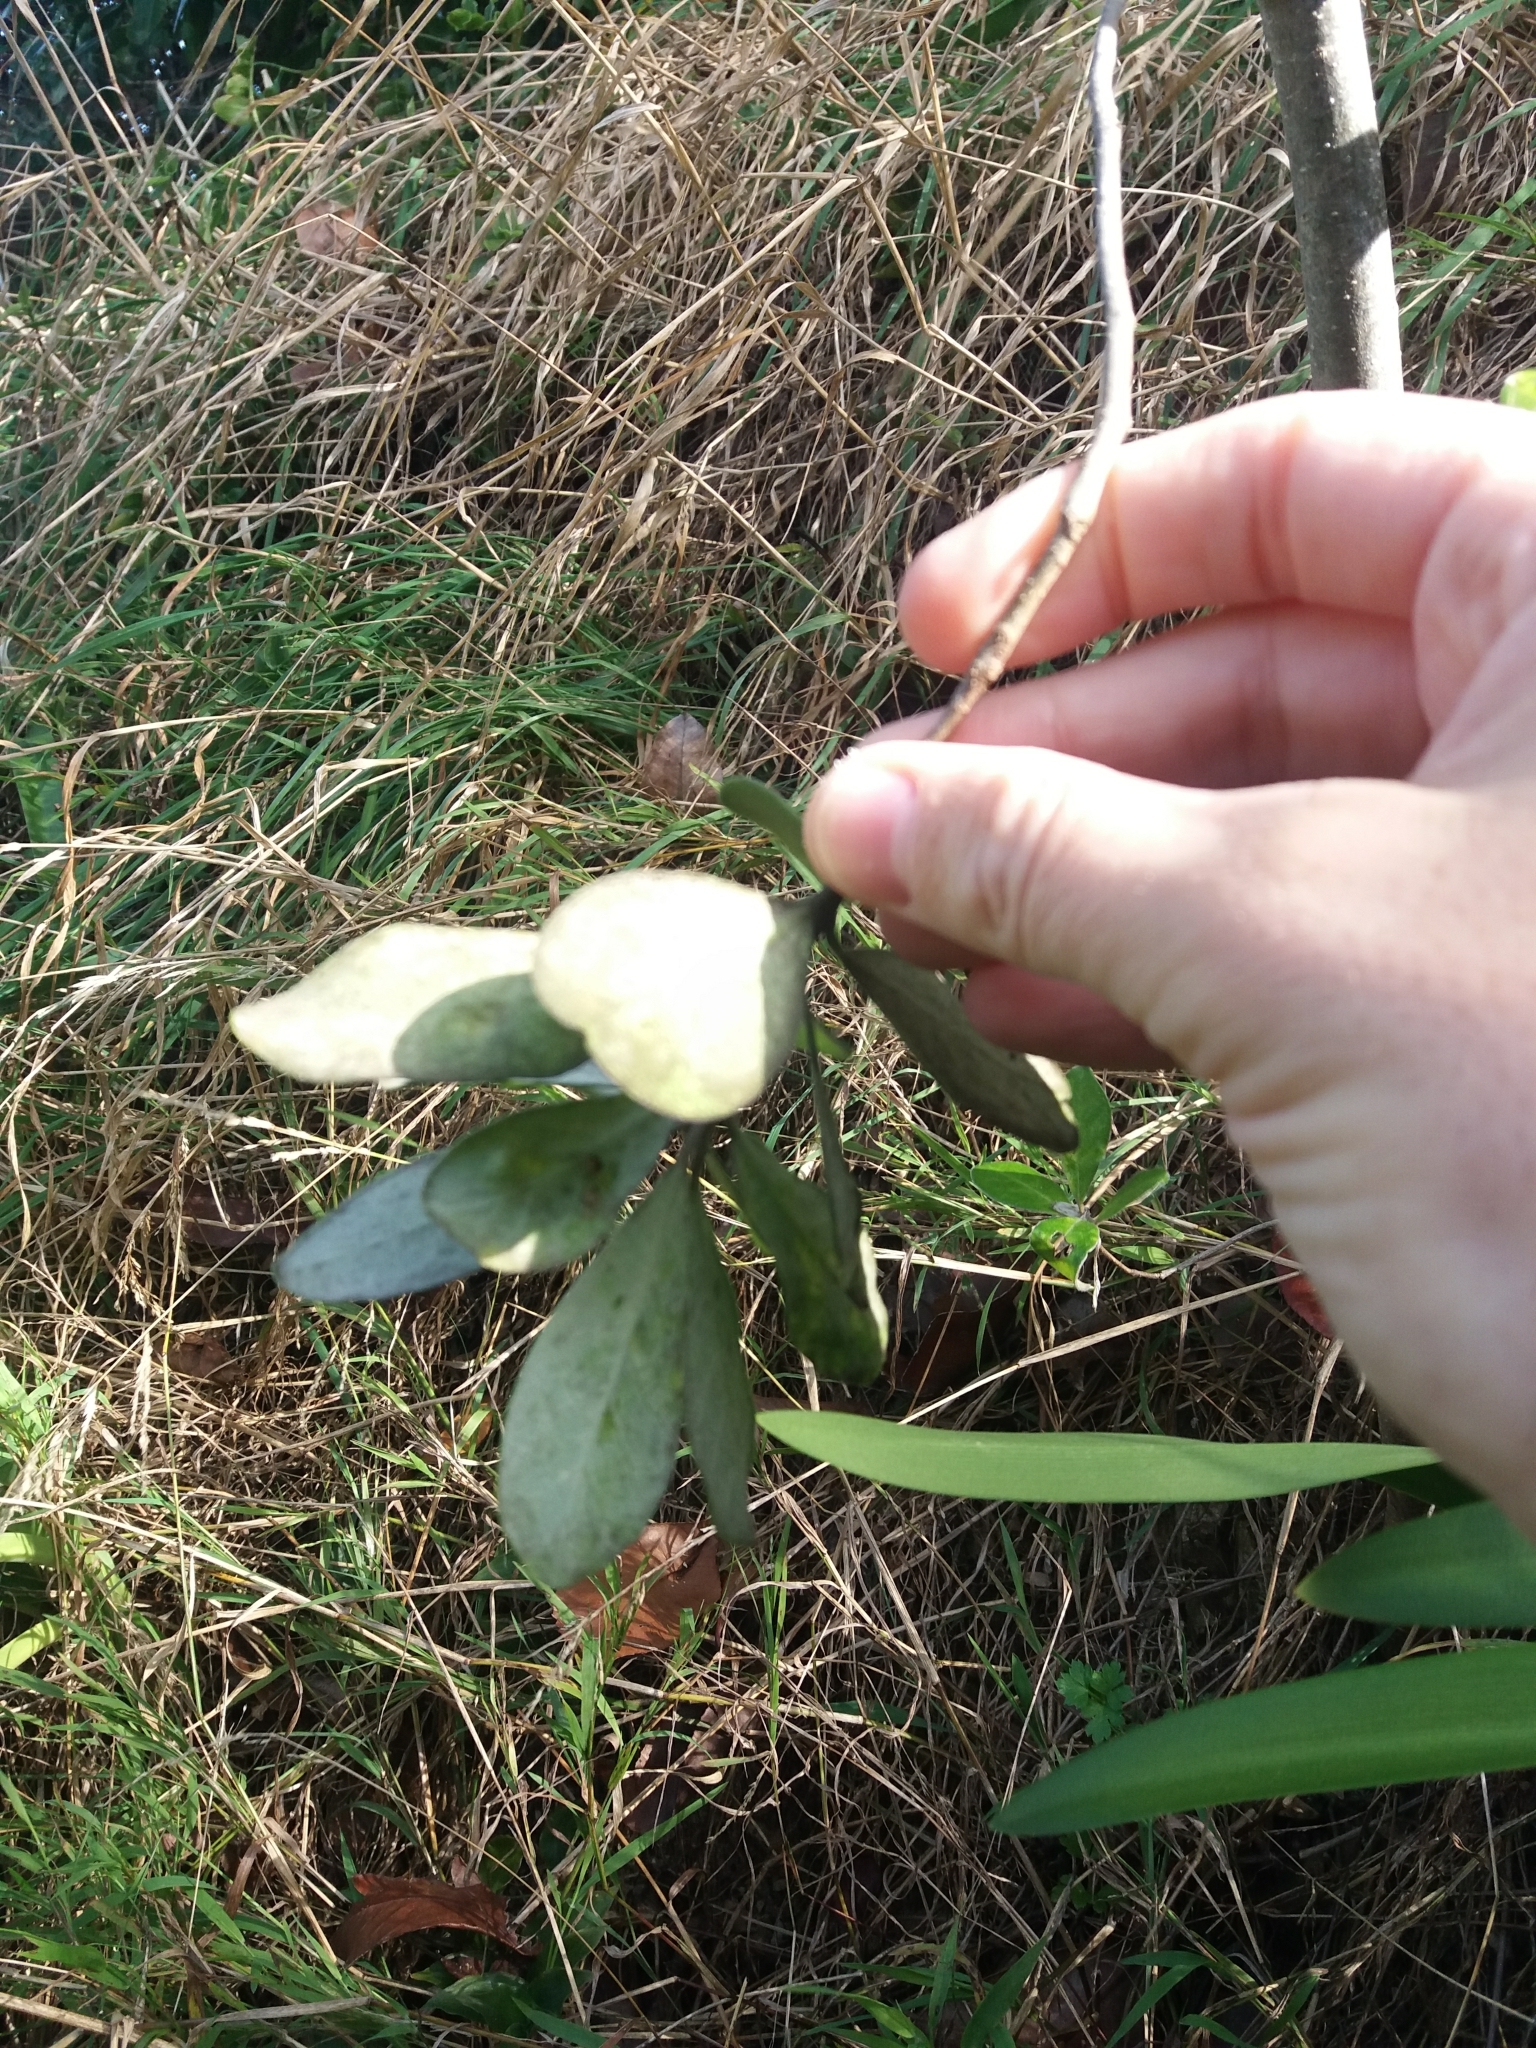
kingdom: Plantae
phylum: Tracheophyta
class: Magnoliopsida
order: Apiales
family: Pittosporaceae
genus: Pittosporum
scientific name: Pittosporum crassifolium
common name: Karo
